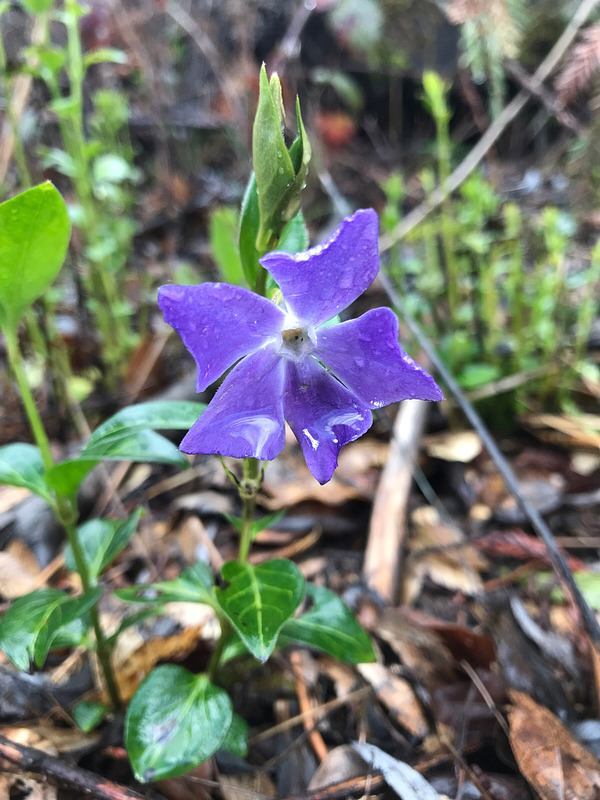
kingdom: Plantae
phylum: Tracheophyta
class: Magnoliopsida
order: Gentianales
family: Apocynaceae
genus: Vinca
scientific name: Vinca major
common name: Greater periwinkle
